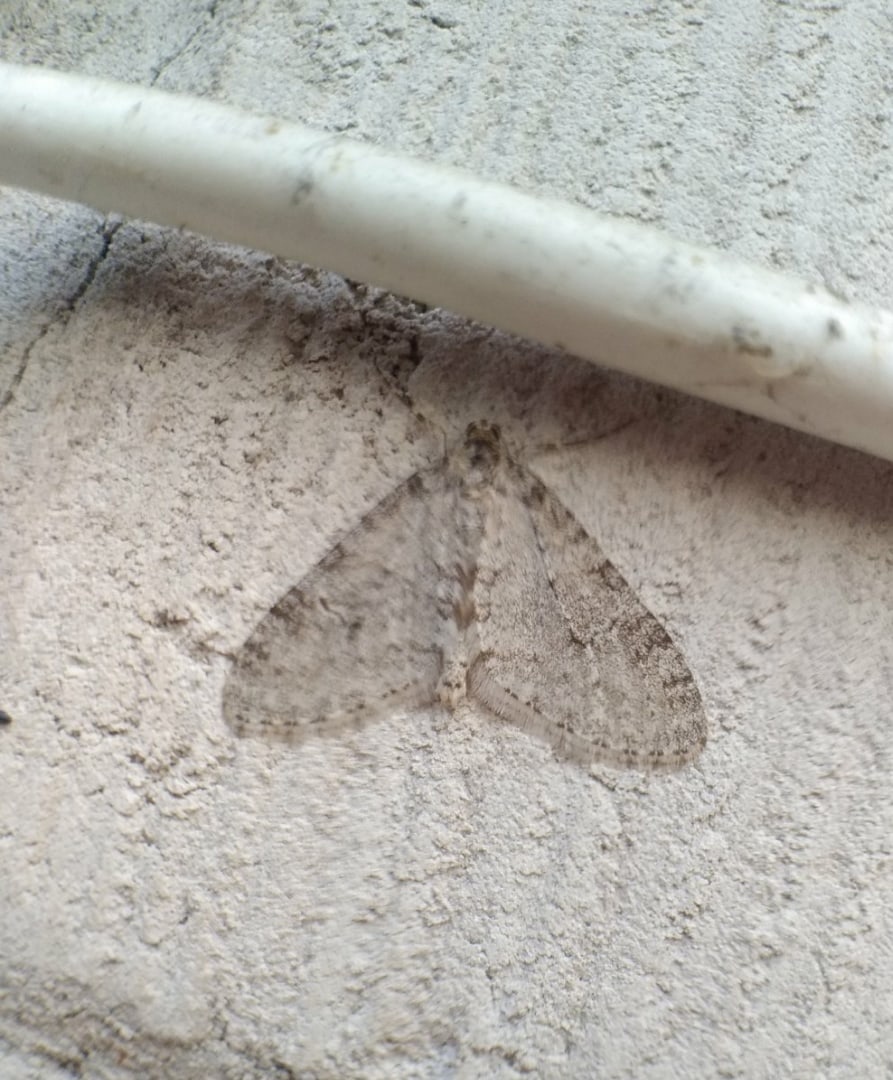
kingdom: Animalia
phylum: Arthropoda
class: Insecta
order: Lepidoptera
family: Geometridae
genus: Trichopteryx
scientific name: Trichopteryx carpinata
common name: Early tooth-striped
